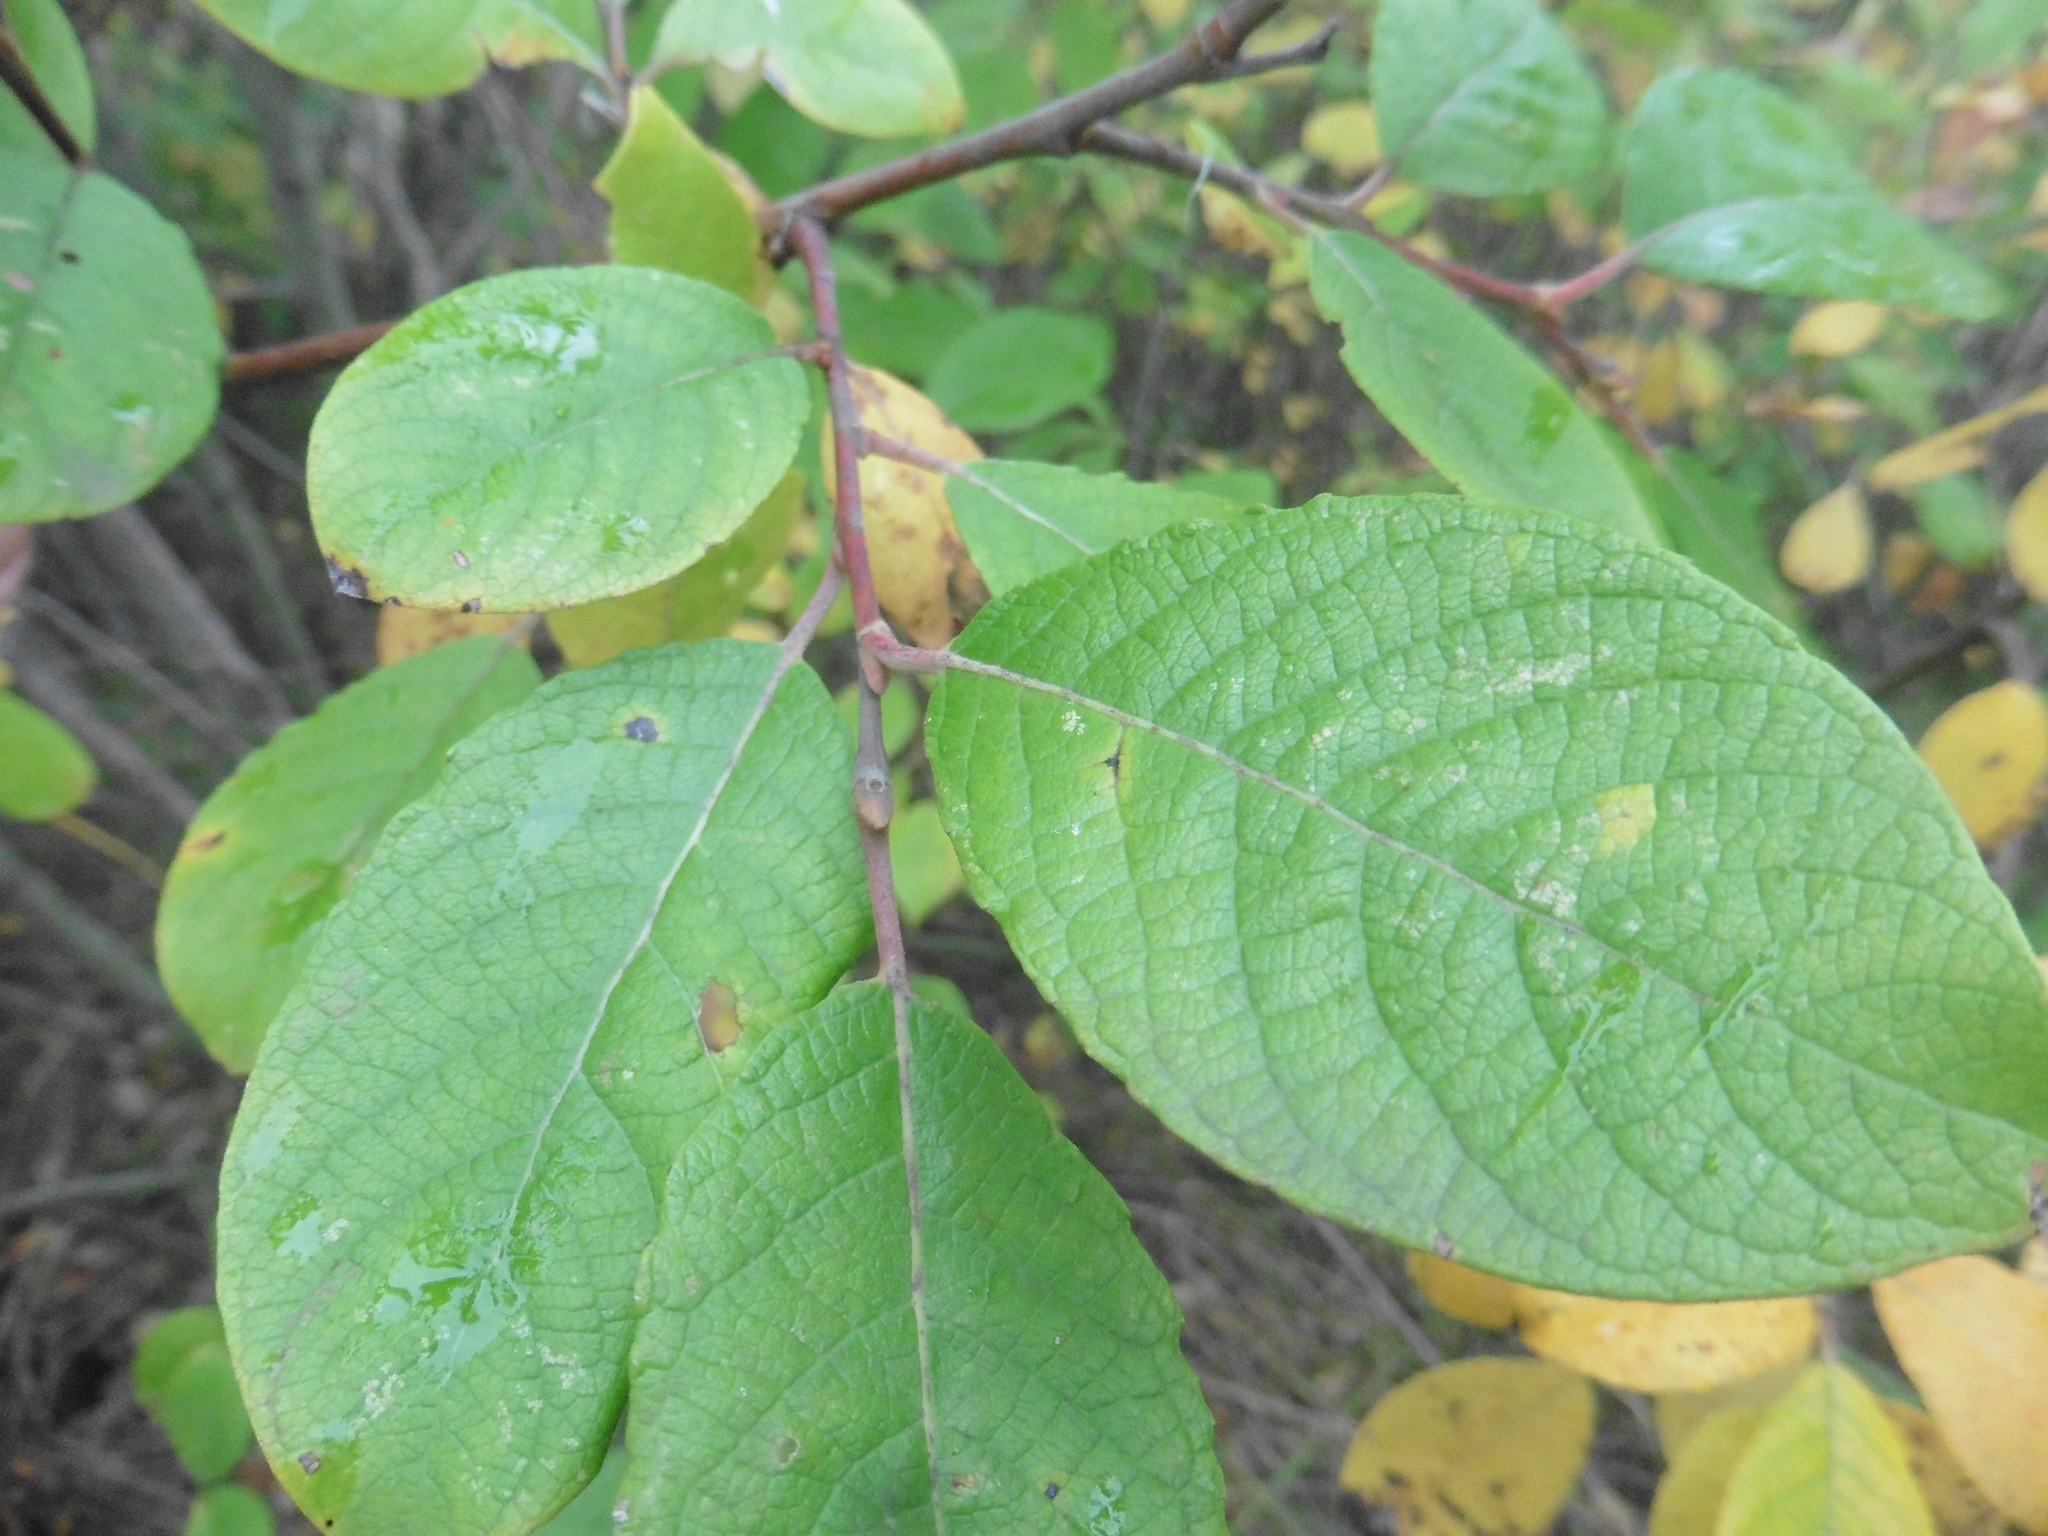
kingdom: Plantae
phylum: Tracheophyta
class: Magnoliopsida
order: Malpighiales
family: Salicaceae
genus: Salix
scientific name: Salix caprea
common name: Goat willow
